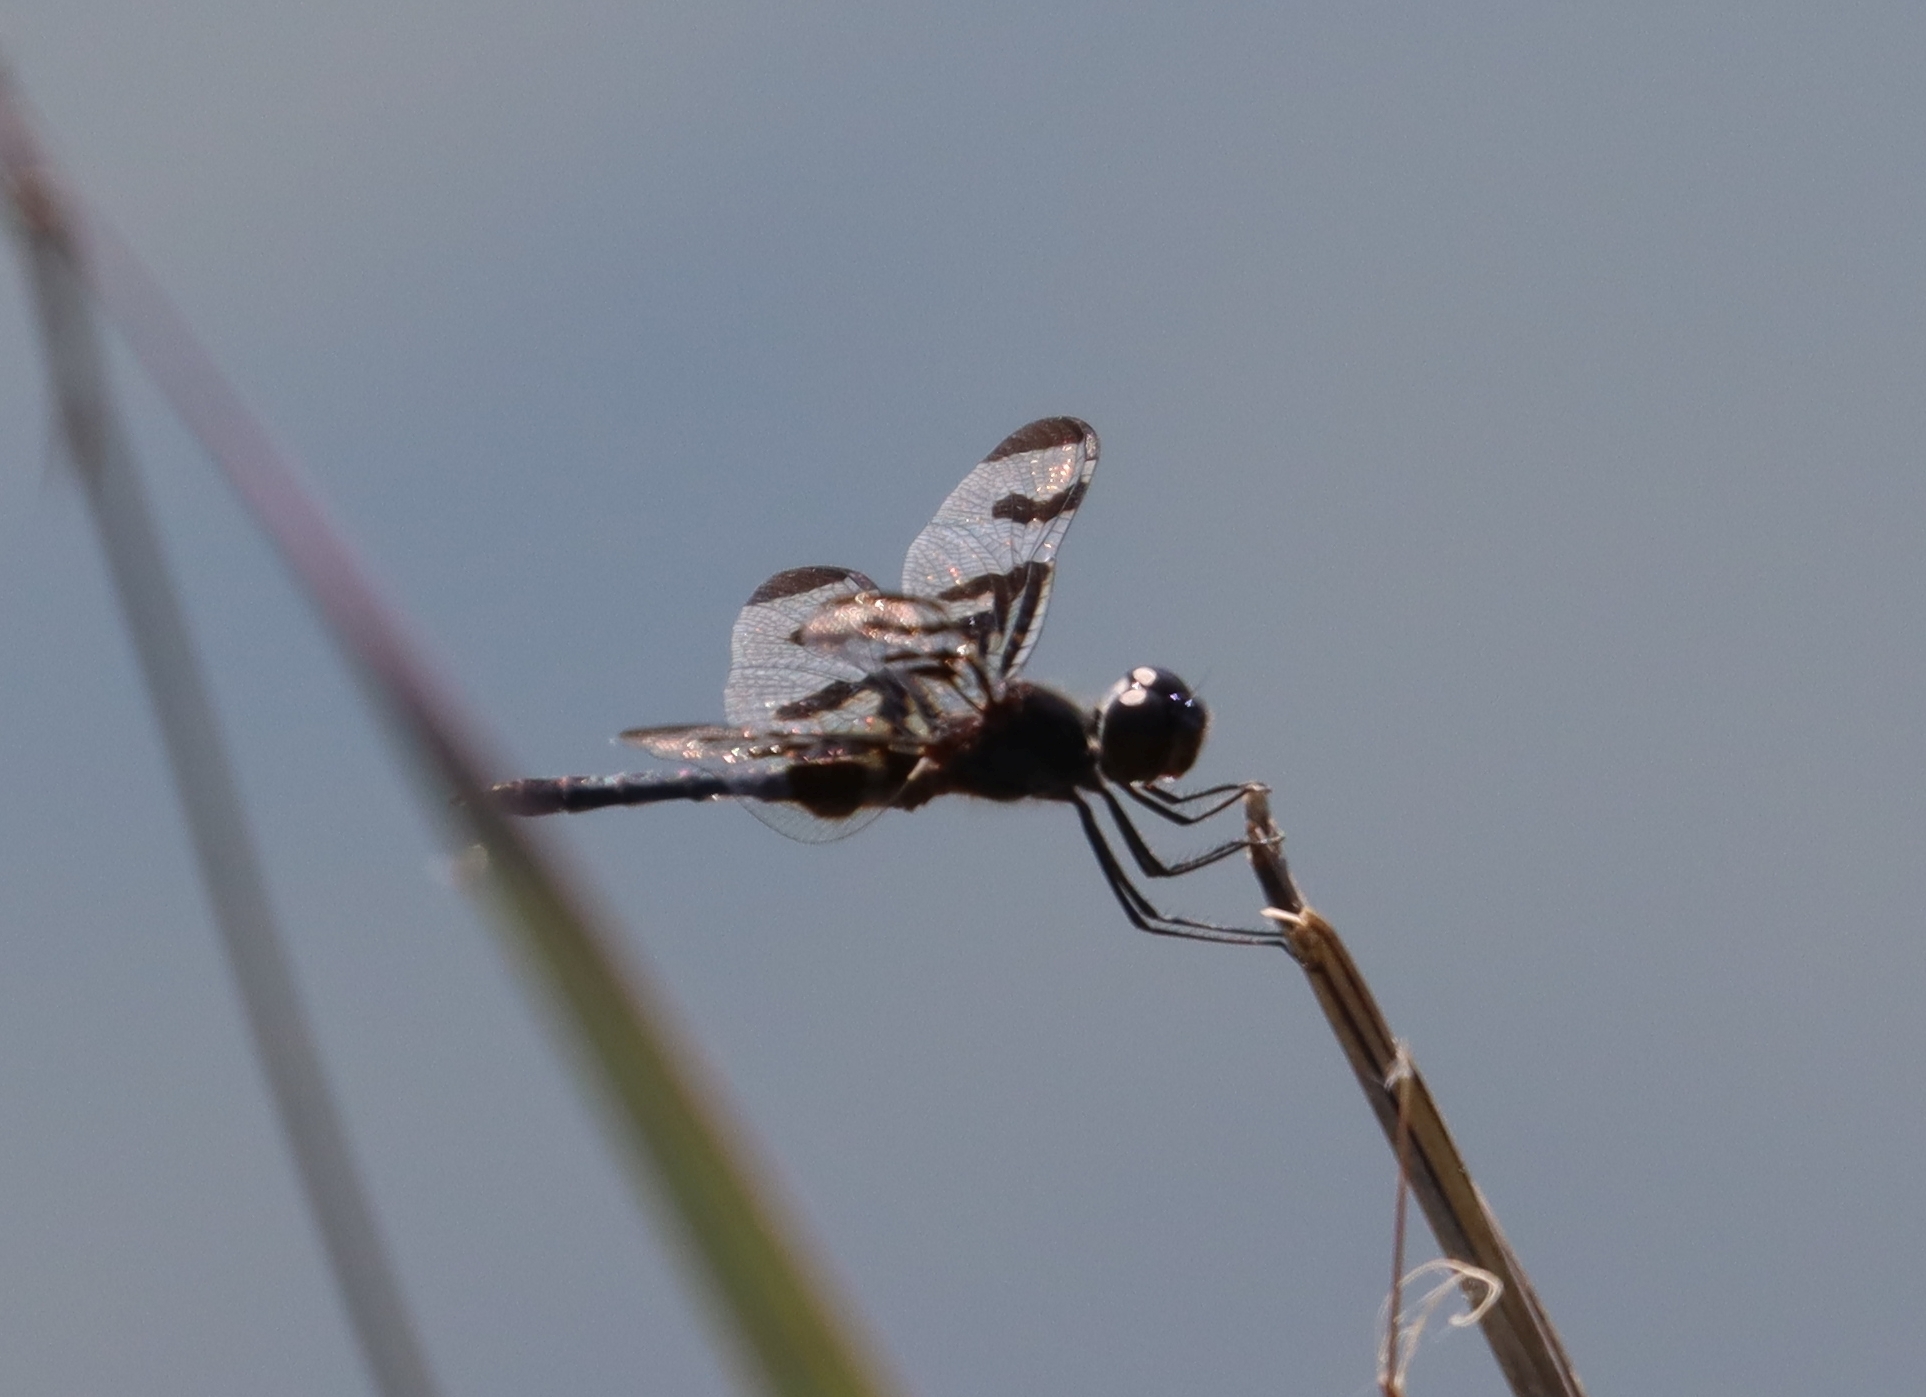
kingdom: Animalia
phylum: Arthropoda
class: Insecta
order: Odonata
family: Libellulidae
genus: Celithemis
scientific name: Celithemis fasciata
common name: Banded pennant
